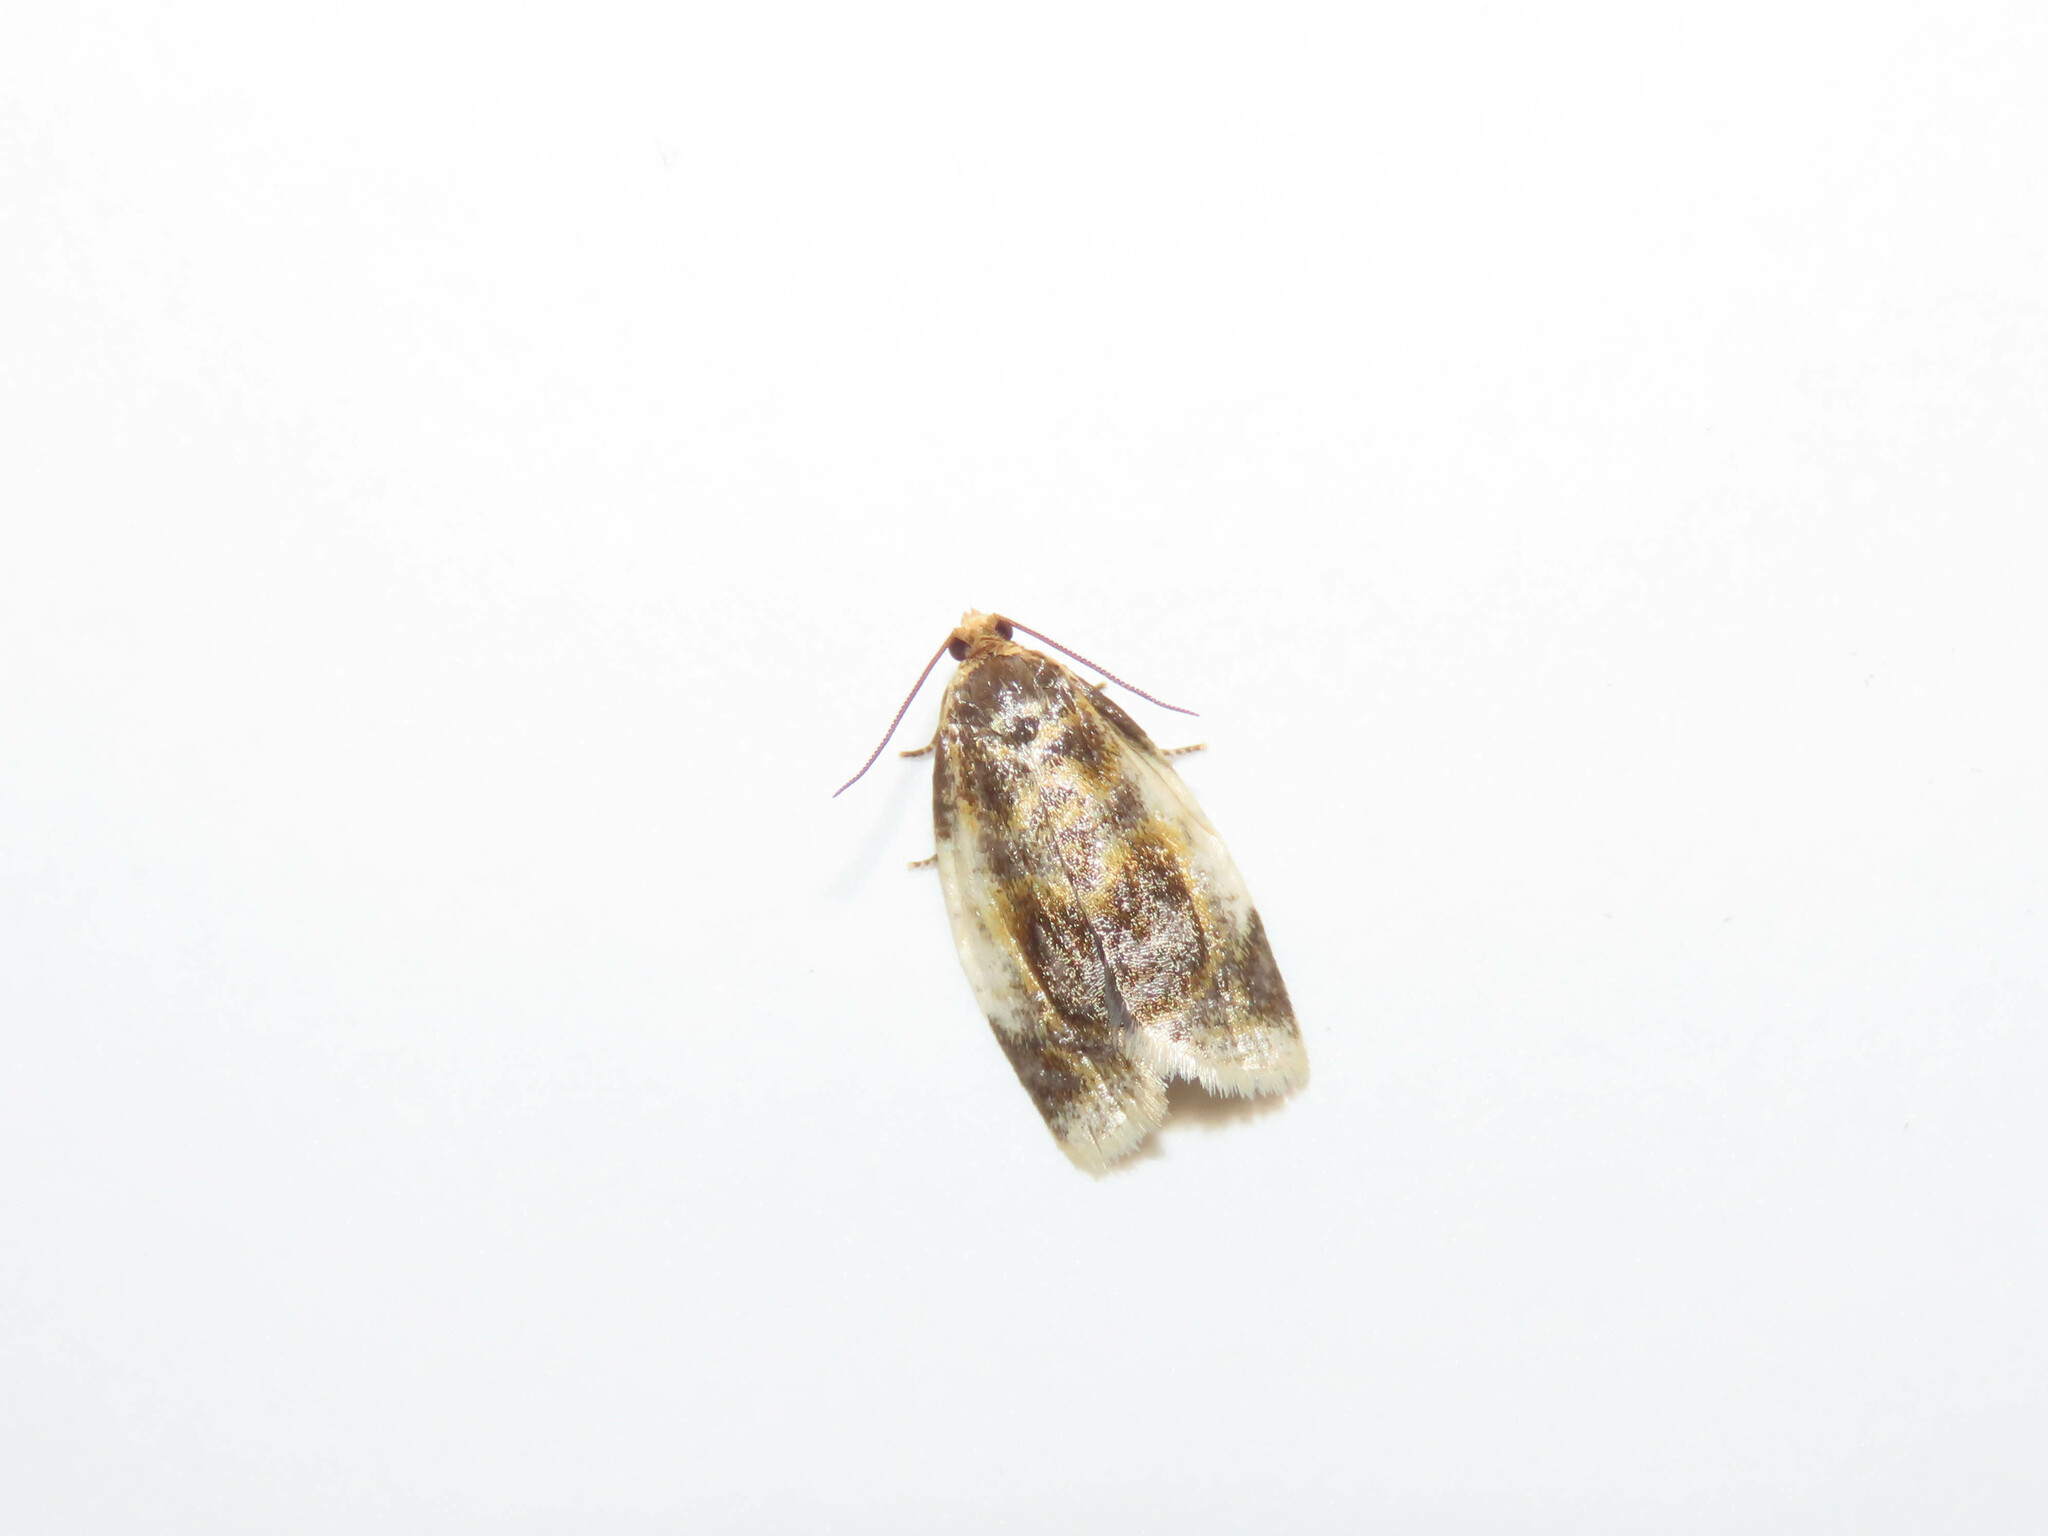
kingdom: Animalia
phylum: Arthropoda
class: Insecta
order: Lepidoptera
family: Tortricidae
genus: Clepsis
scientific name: Clepsis melaleucanus
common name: American apple tortrix
